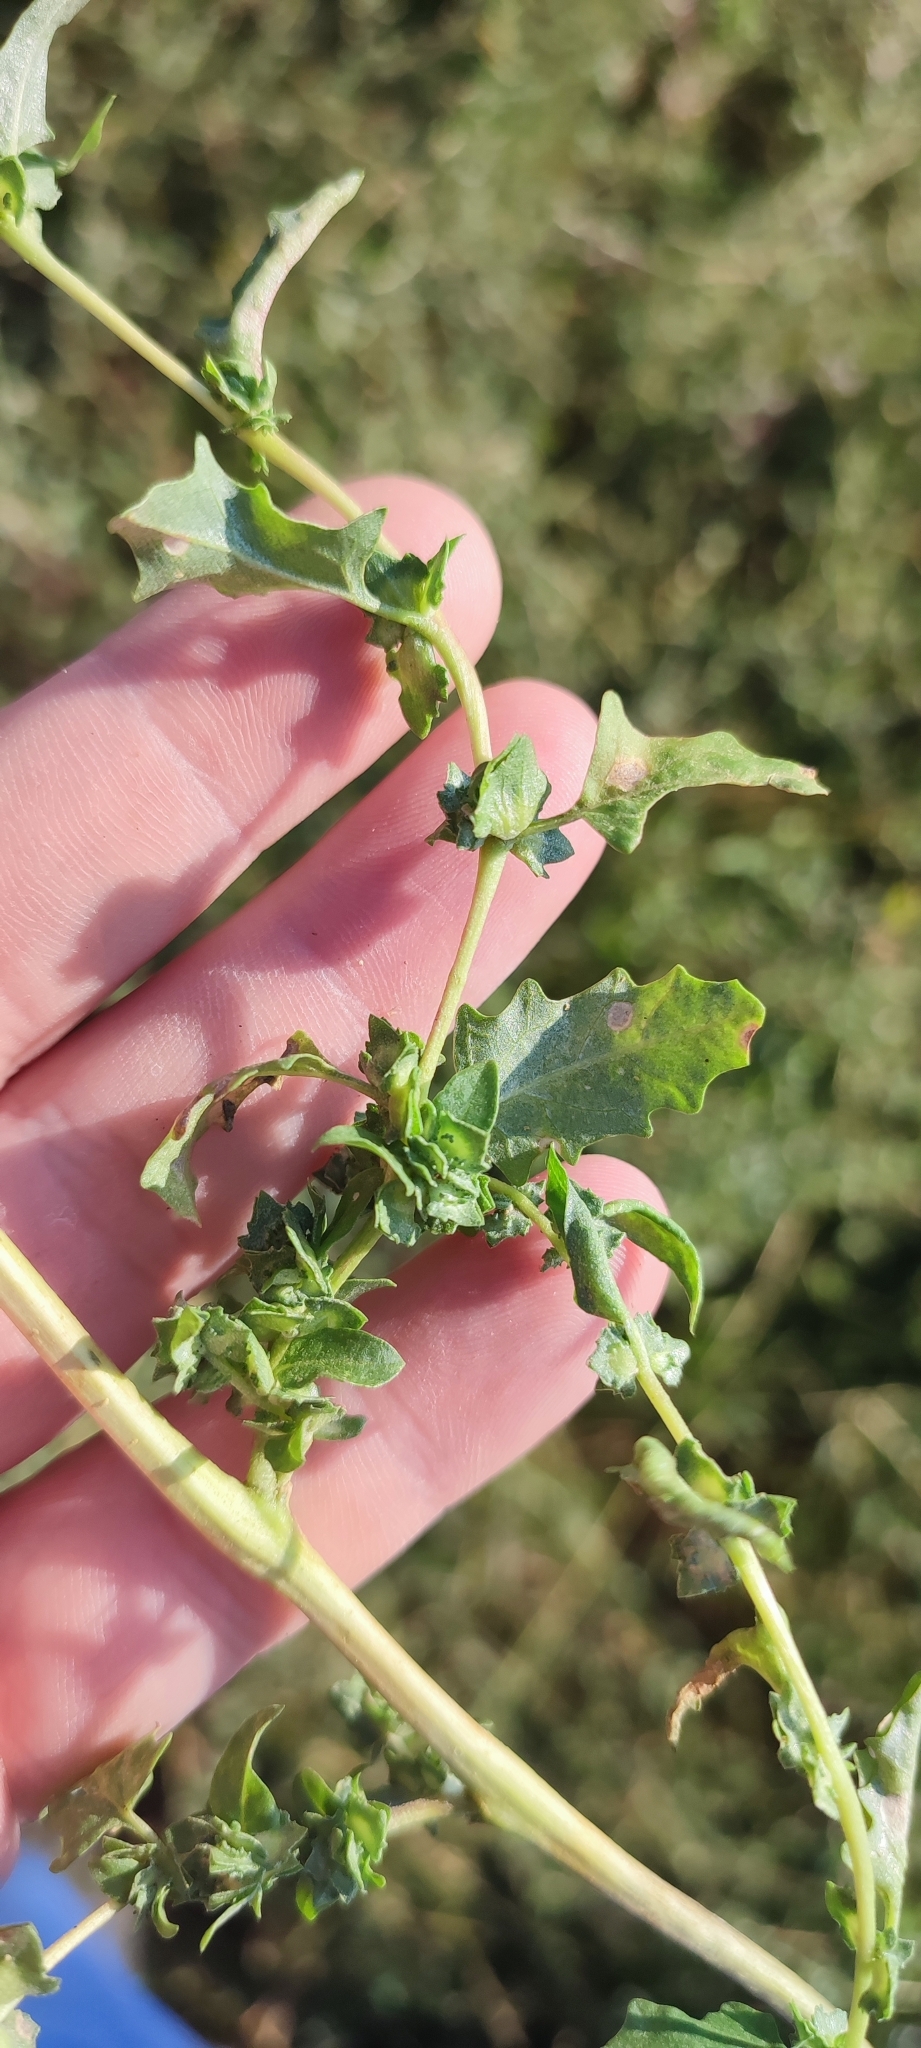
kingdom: Plantae
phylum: Tracheophyta
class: Magnoliopsida
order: Caryophyllales
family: Amaranthaceae
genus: Atriplex
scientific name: Atriplex tatarica
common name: Tatarian orache
